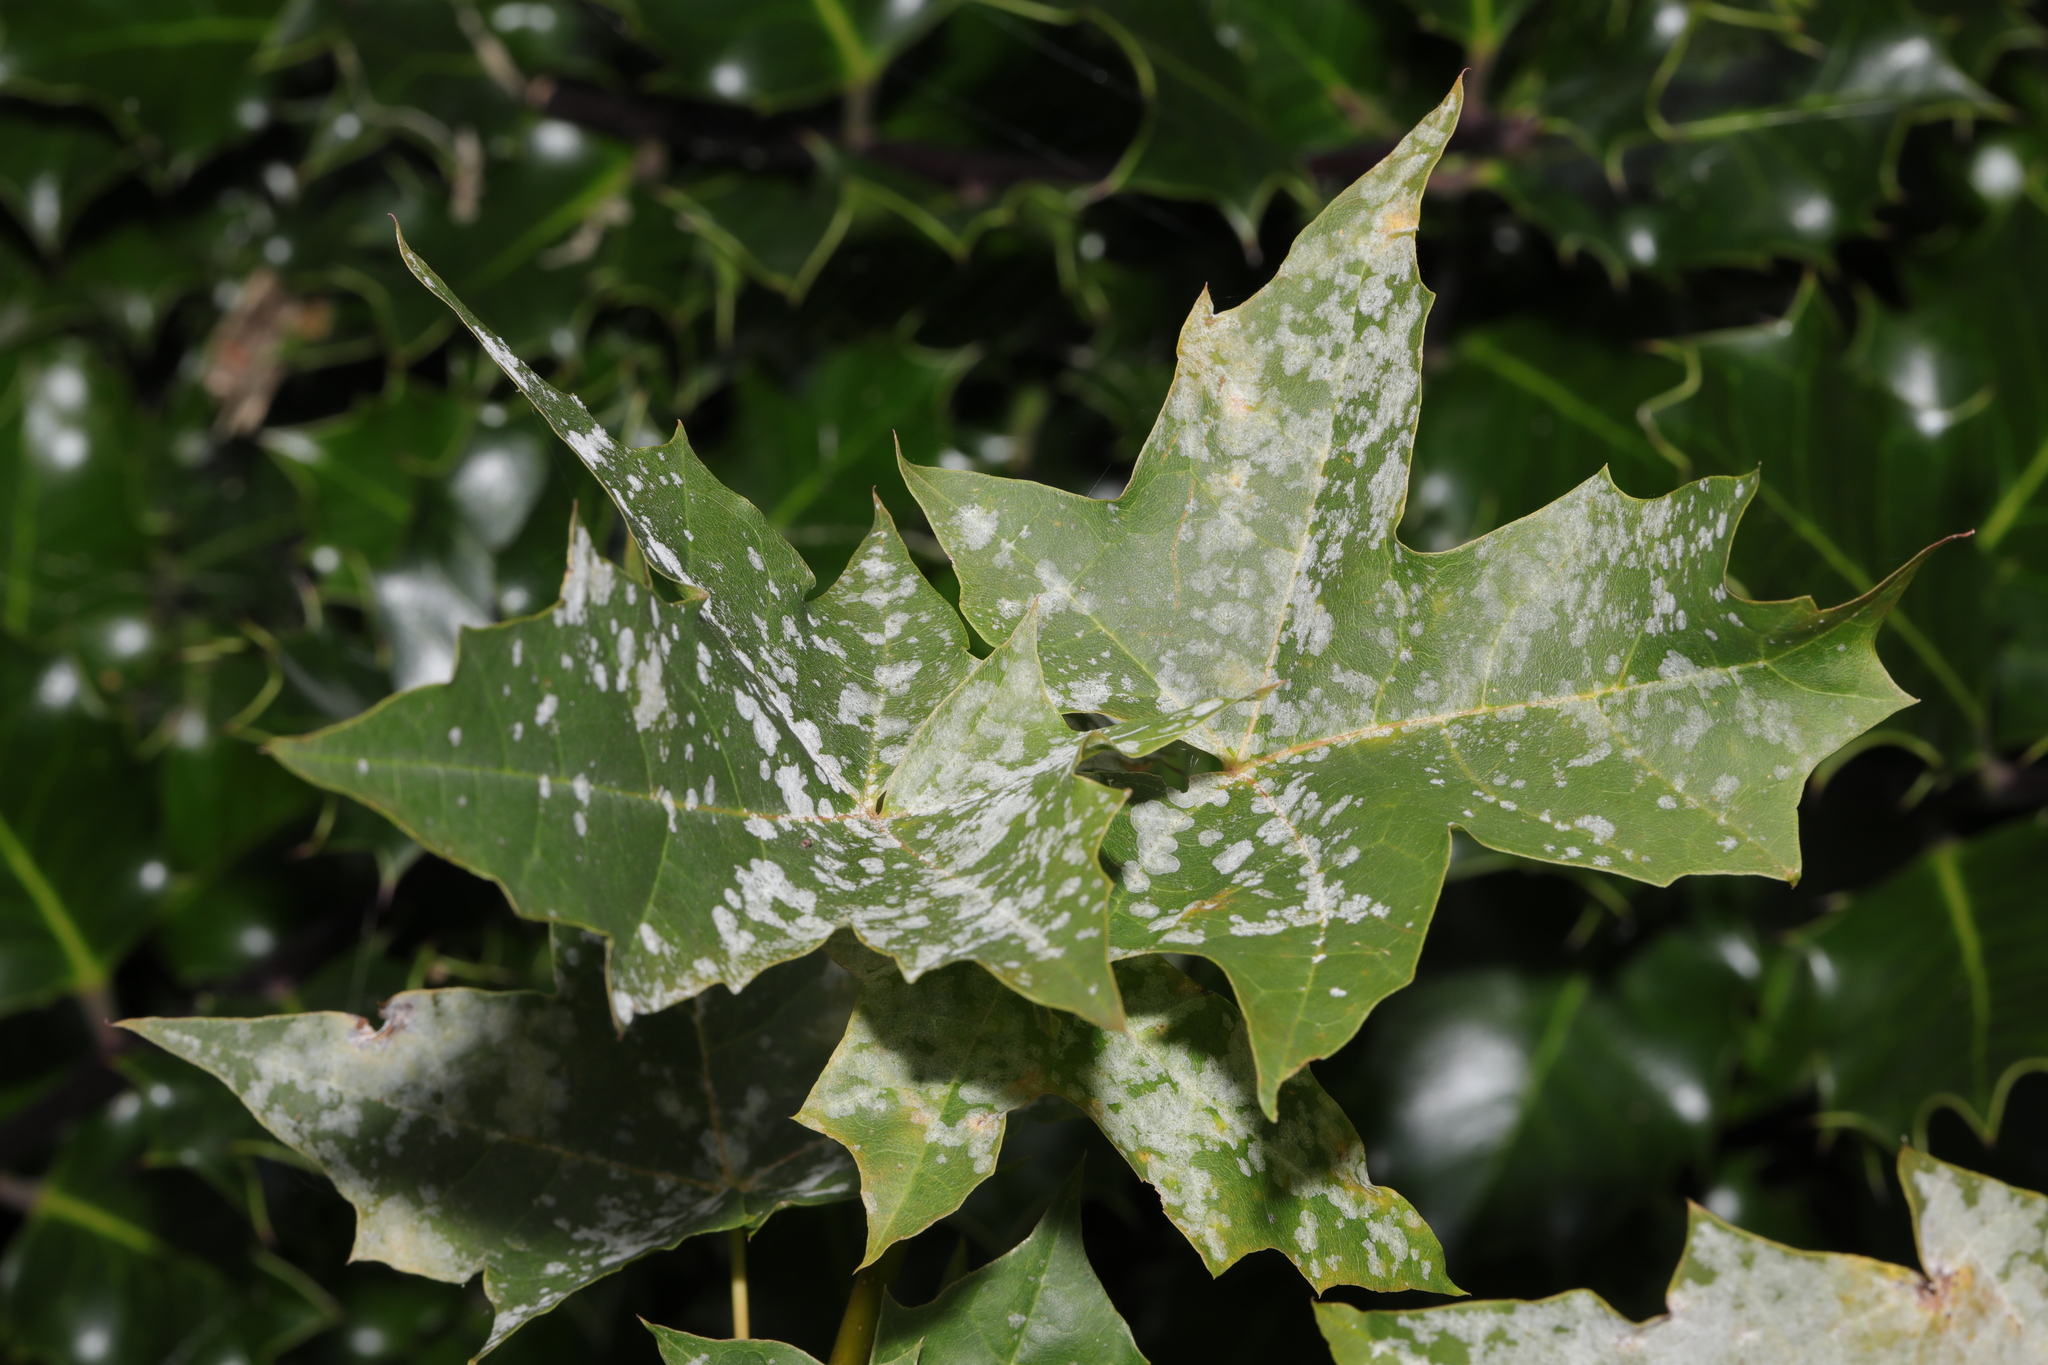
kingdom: Fungi
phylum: Ascomycota
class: Leotiomycetes
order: Helotiales
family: Erysiphaceae
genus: Sawadaea
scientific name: Sawadaea tulasnei
